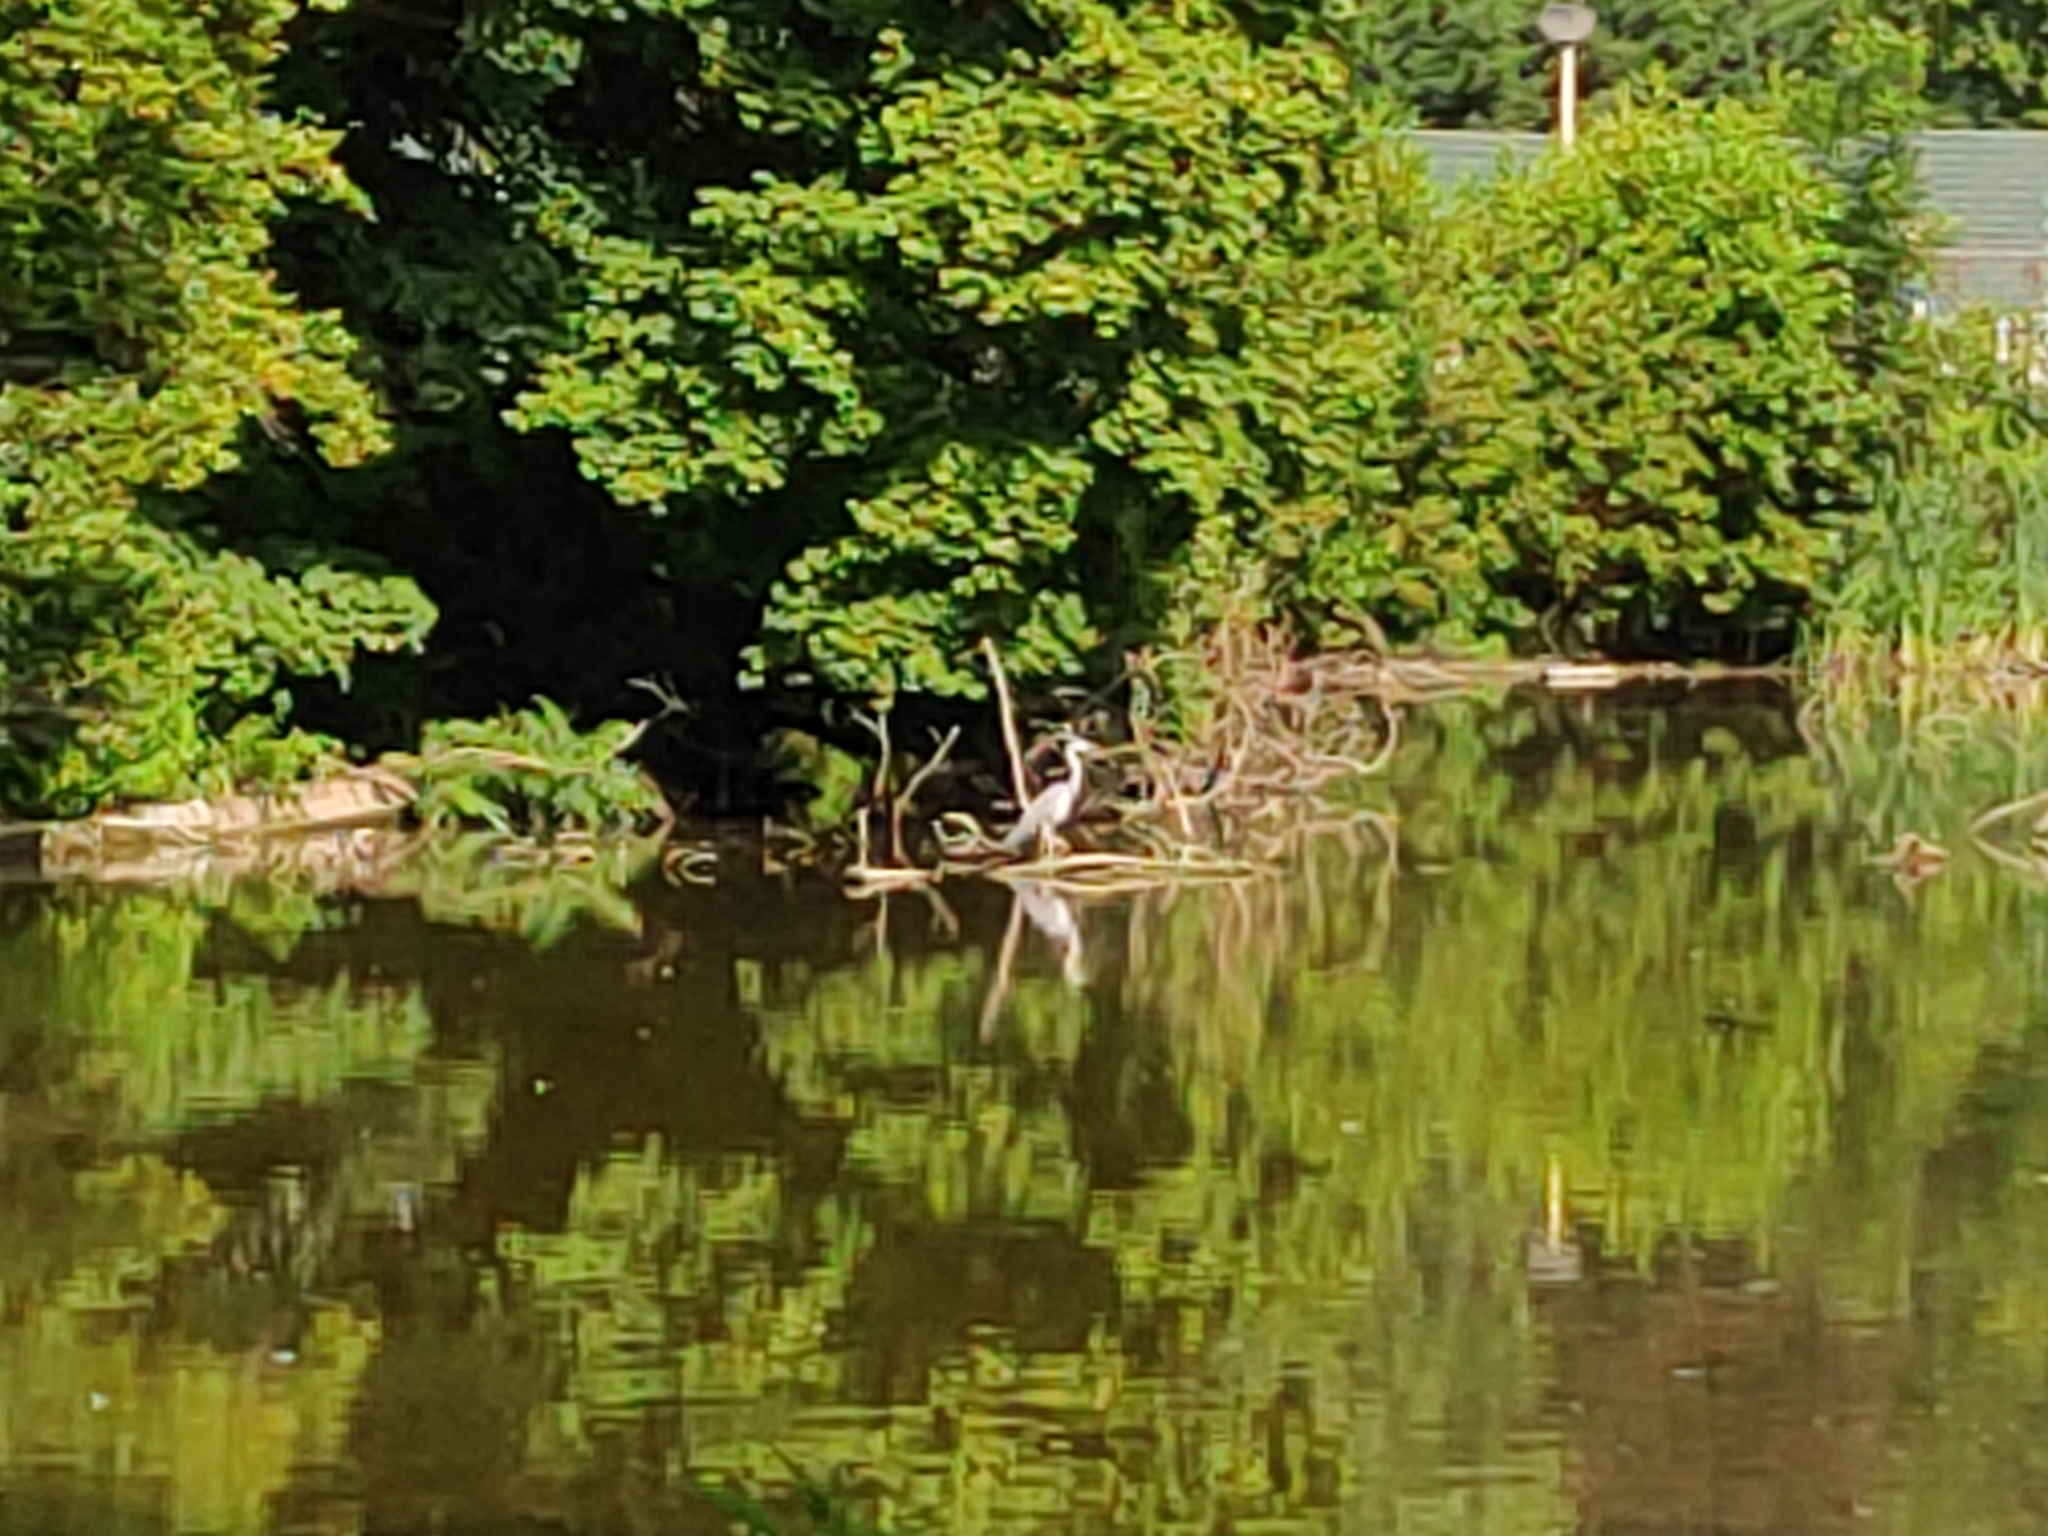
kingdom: Animalia
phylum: Chordata
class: Aves
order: Pelecaniformes
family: Ardeidae
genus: Ardea
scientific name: Ardea cinerea
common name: Grey heron
